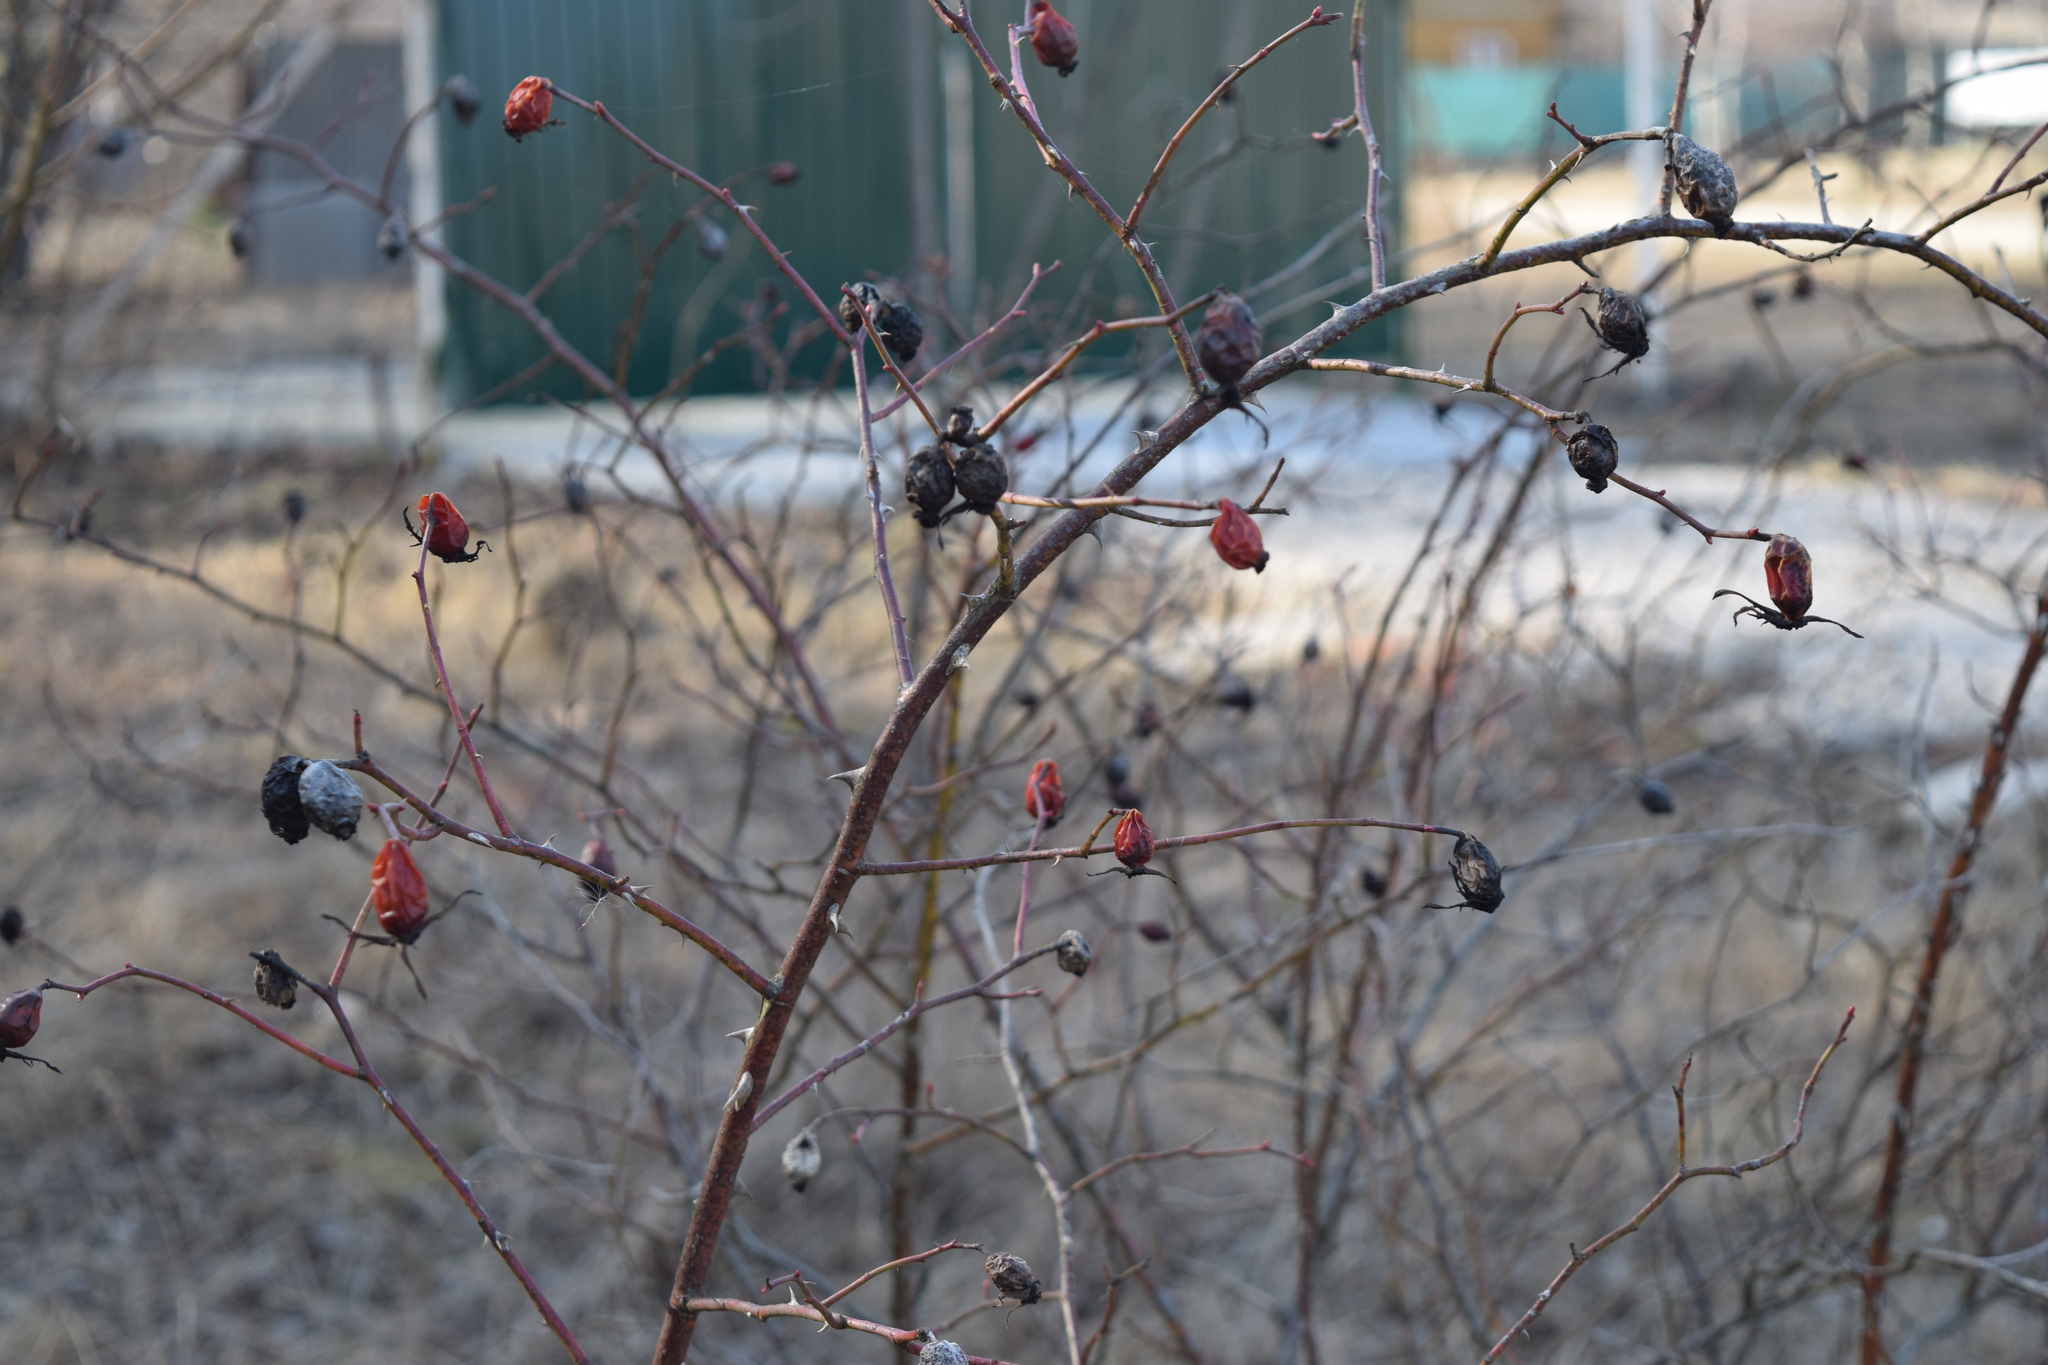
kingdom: Plantae
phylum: Tracheophyta
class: Magnoliopsida
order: Rosales
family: Rosaceae
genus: Rosa
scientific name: Rosa canina
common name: Dog rose
